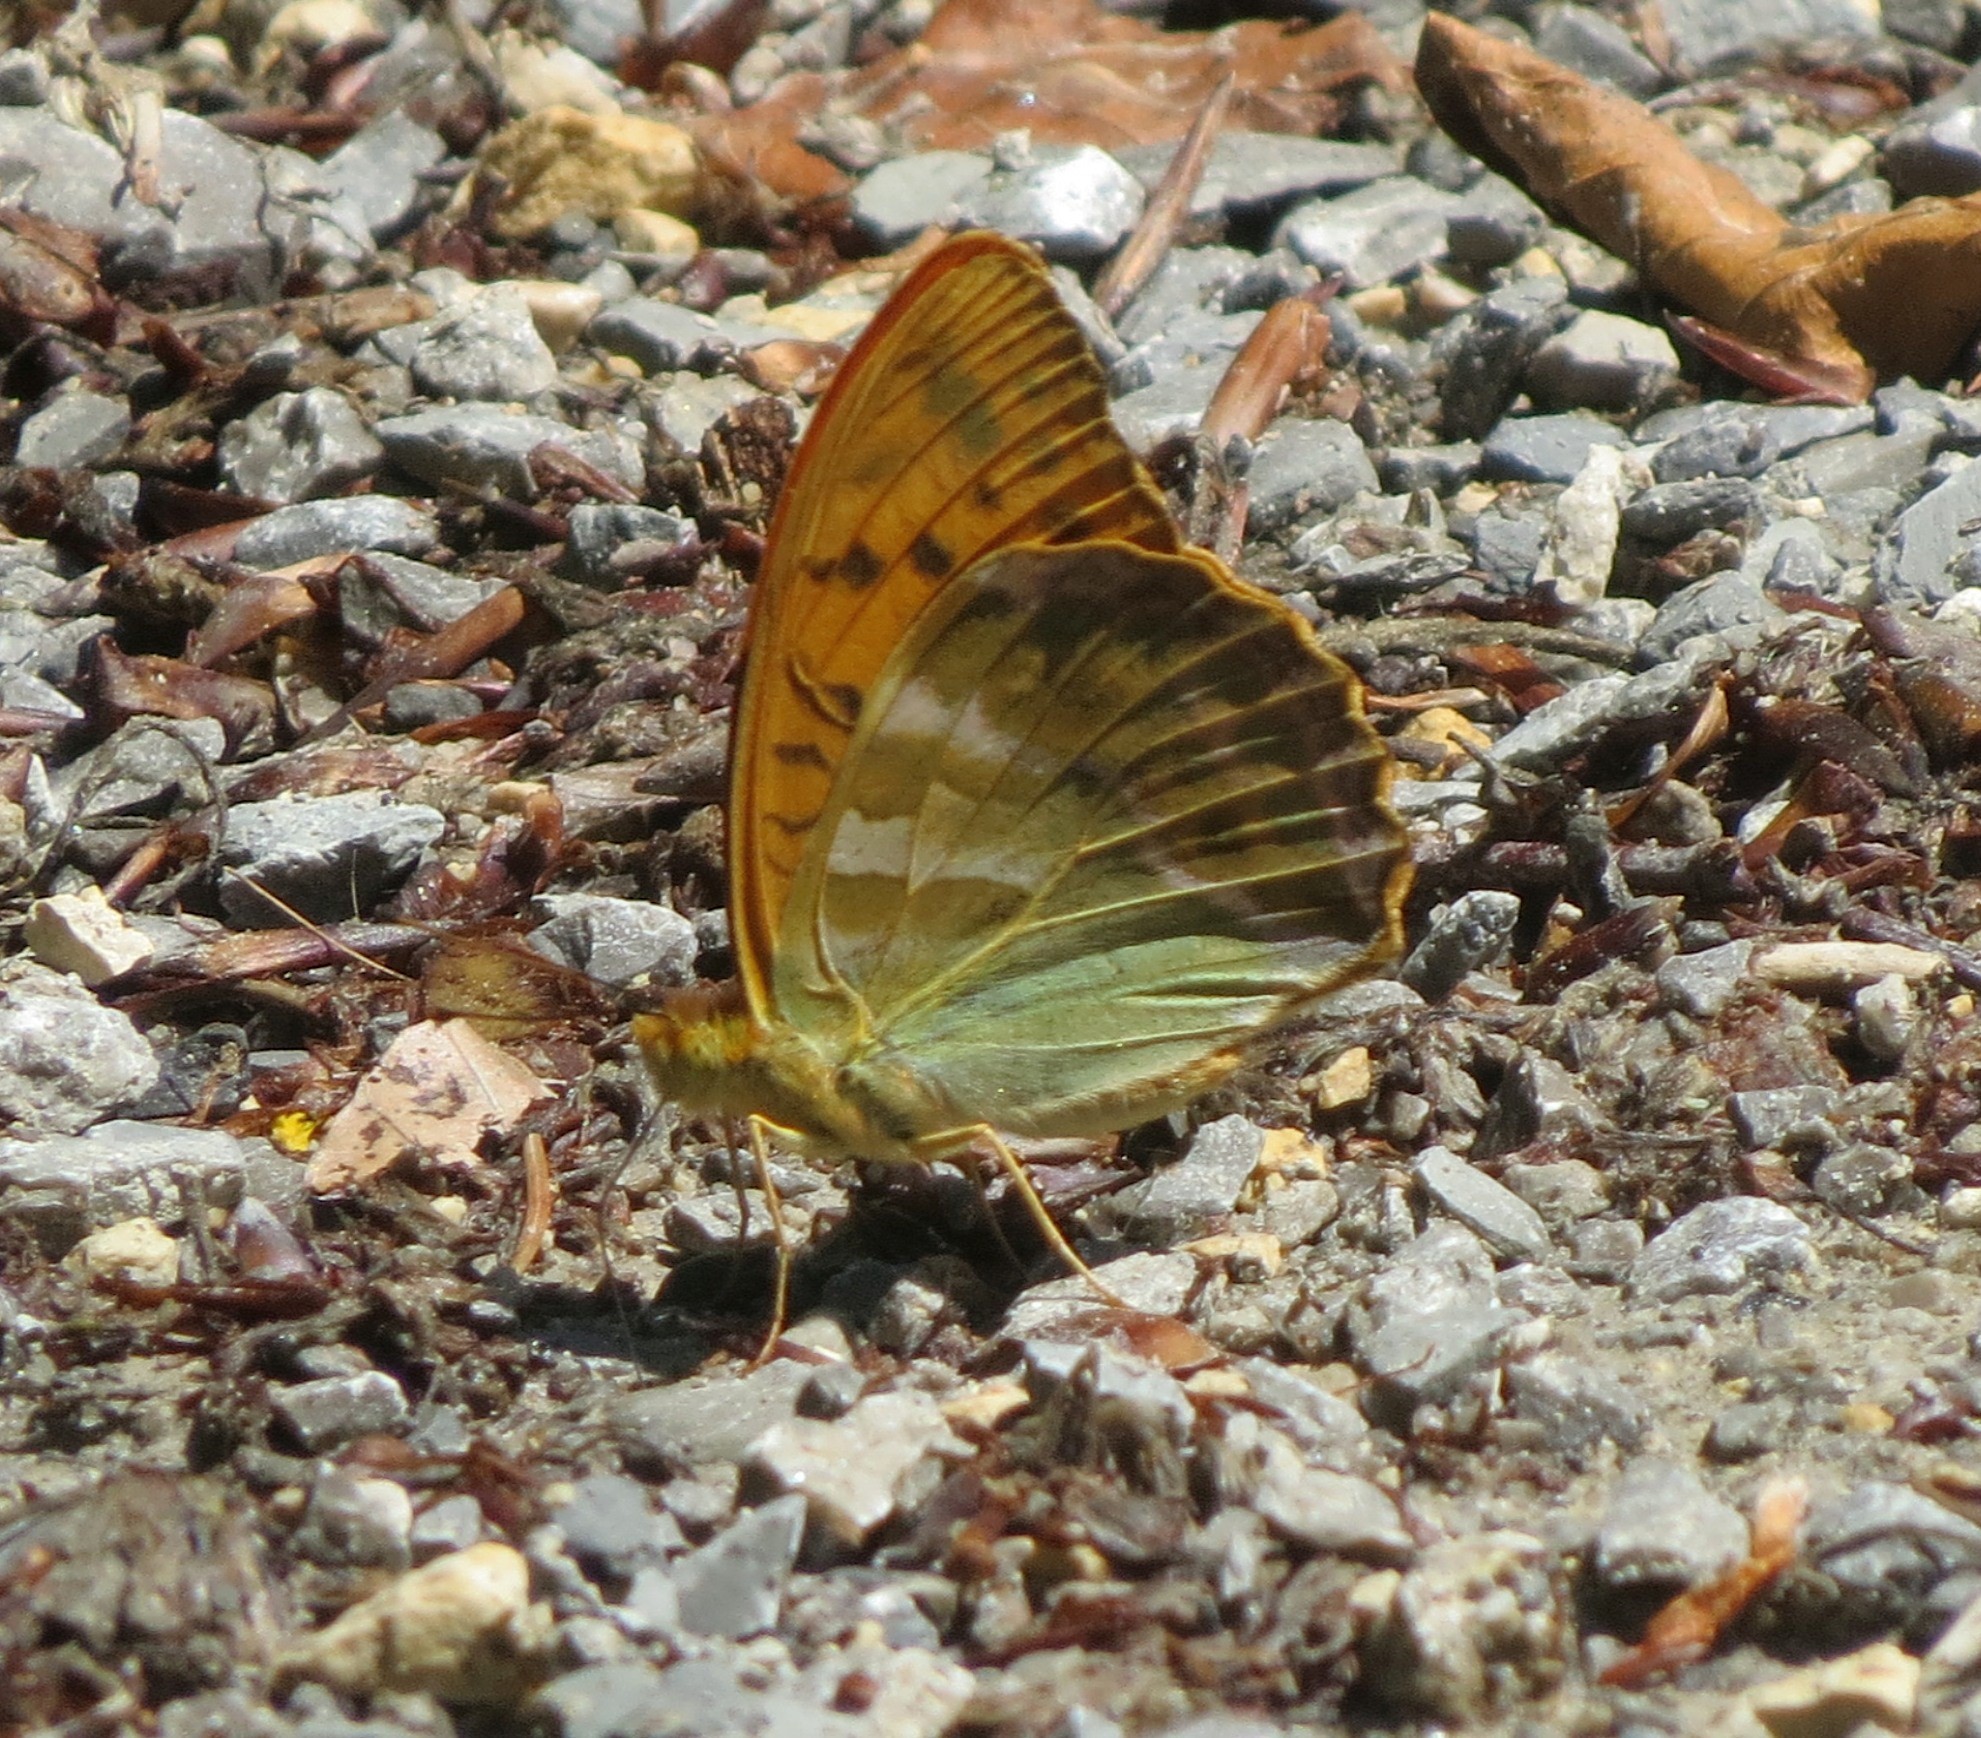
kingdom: Animalia
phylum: Arthropoda
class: Insecta
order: Lepidoptera
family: Nymphalidae
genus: Argynnis
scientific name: Argynnis paphia
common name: Silver-washed fritillary
